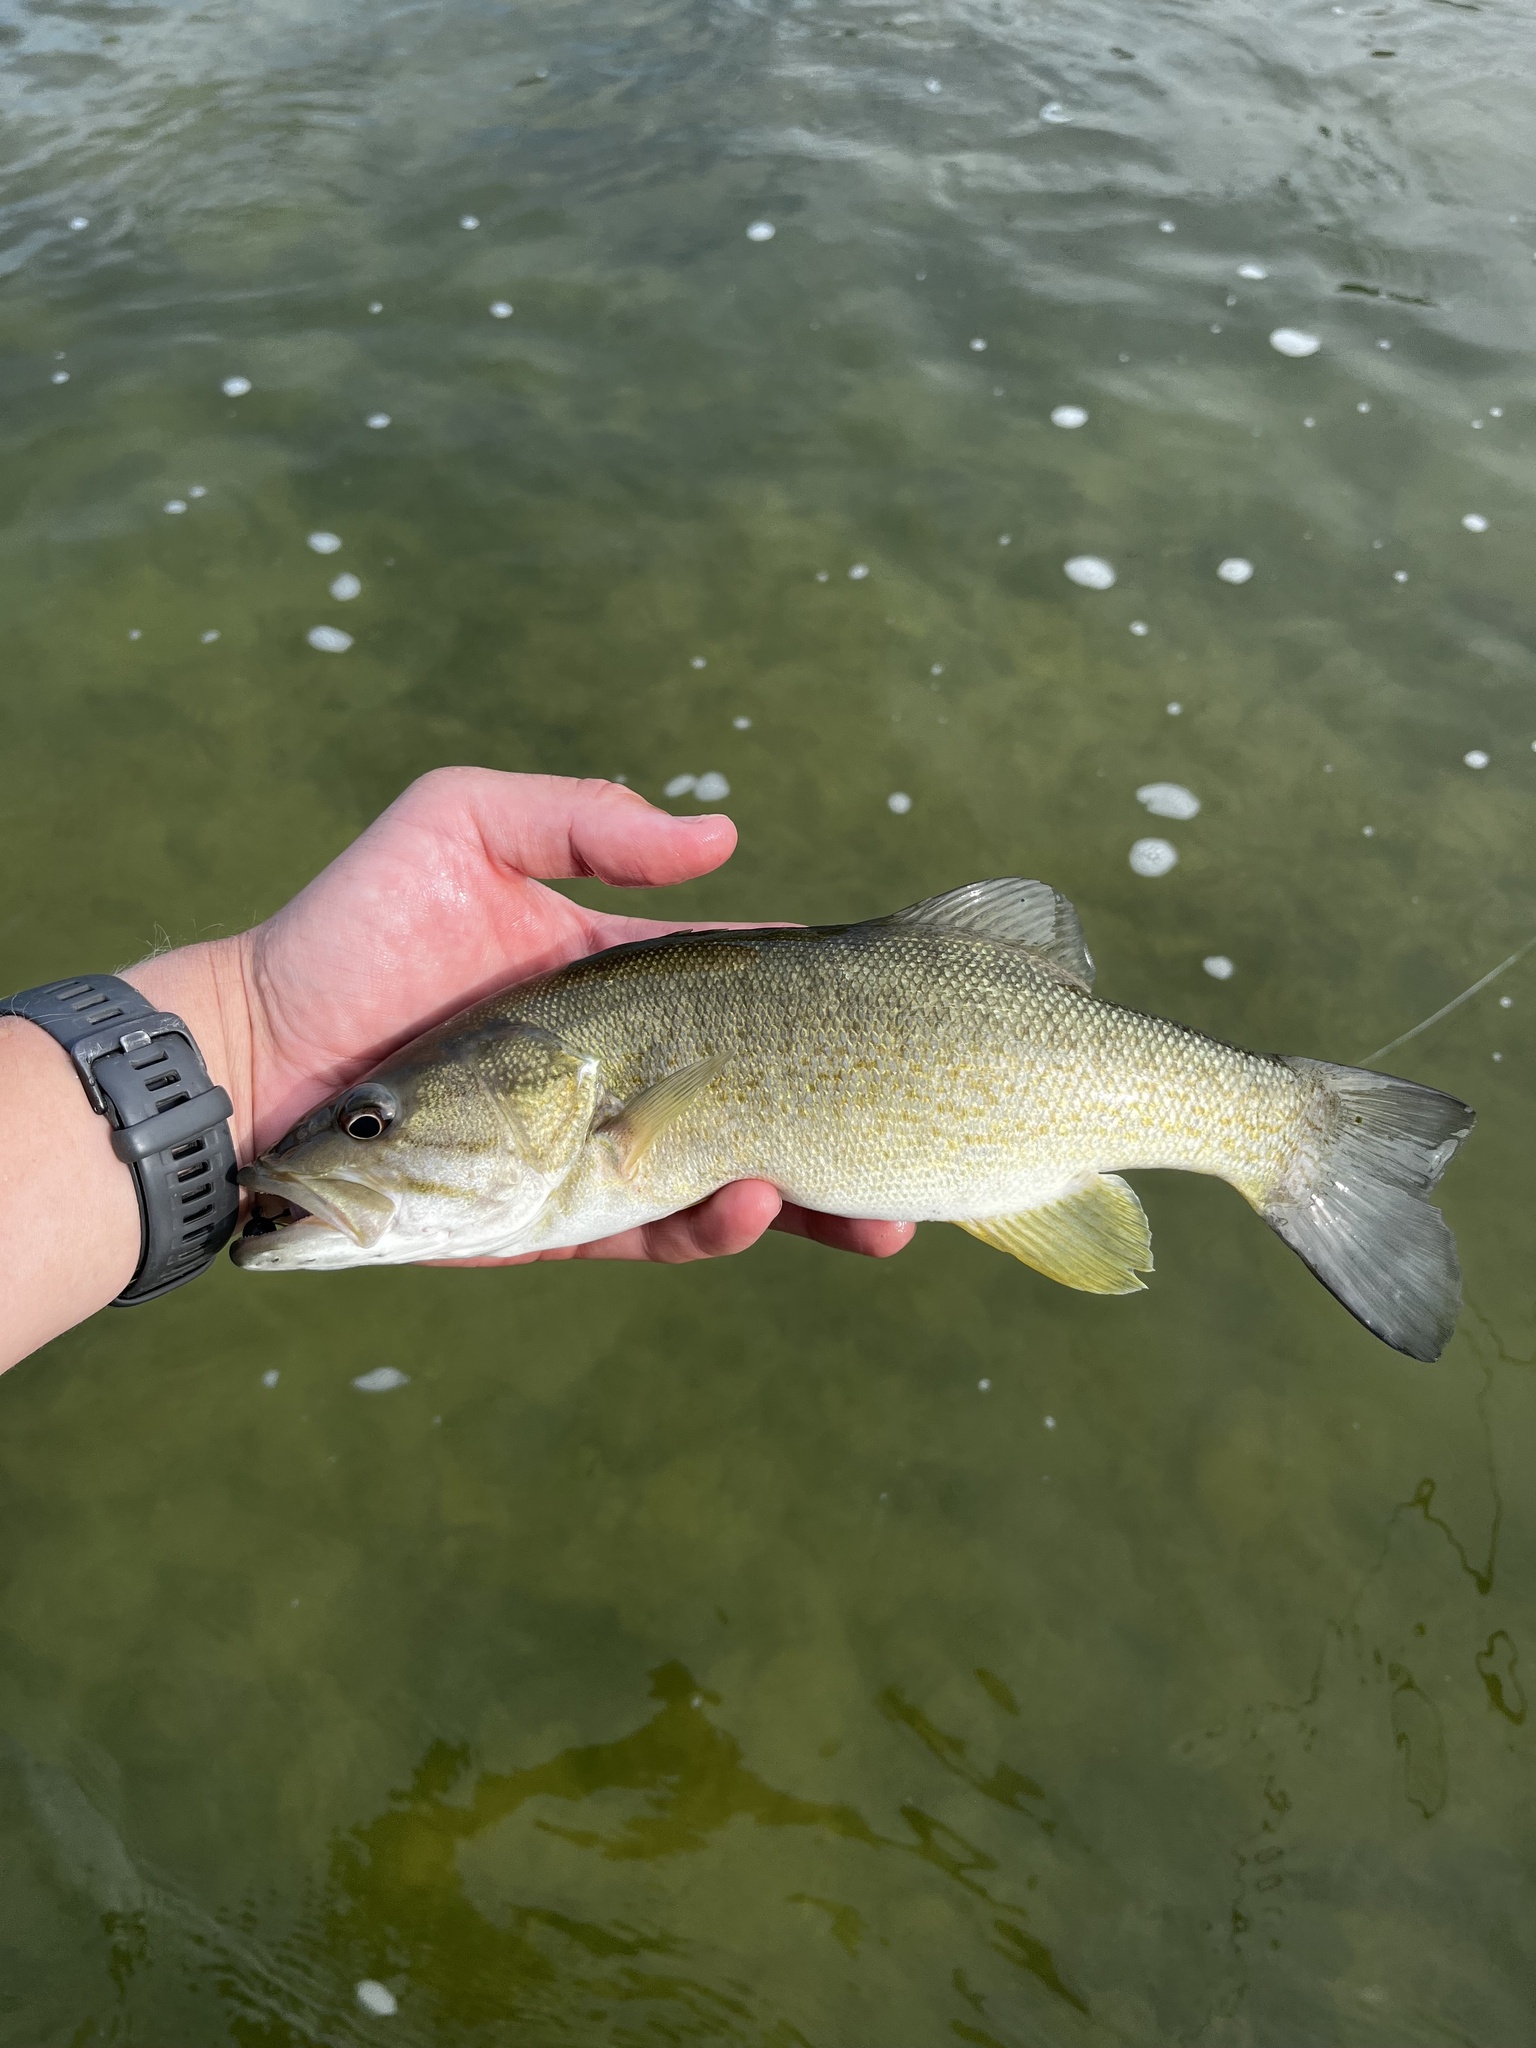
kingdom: Animalia
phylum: Chordata
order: Perciformes
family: Centrarchidae
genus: Micropterus
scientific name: Micropterus dolomieu
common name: Smallmouth bass
